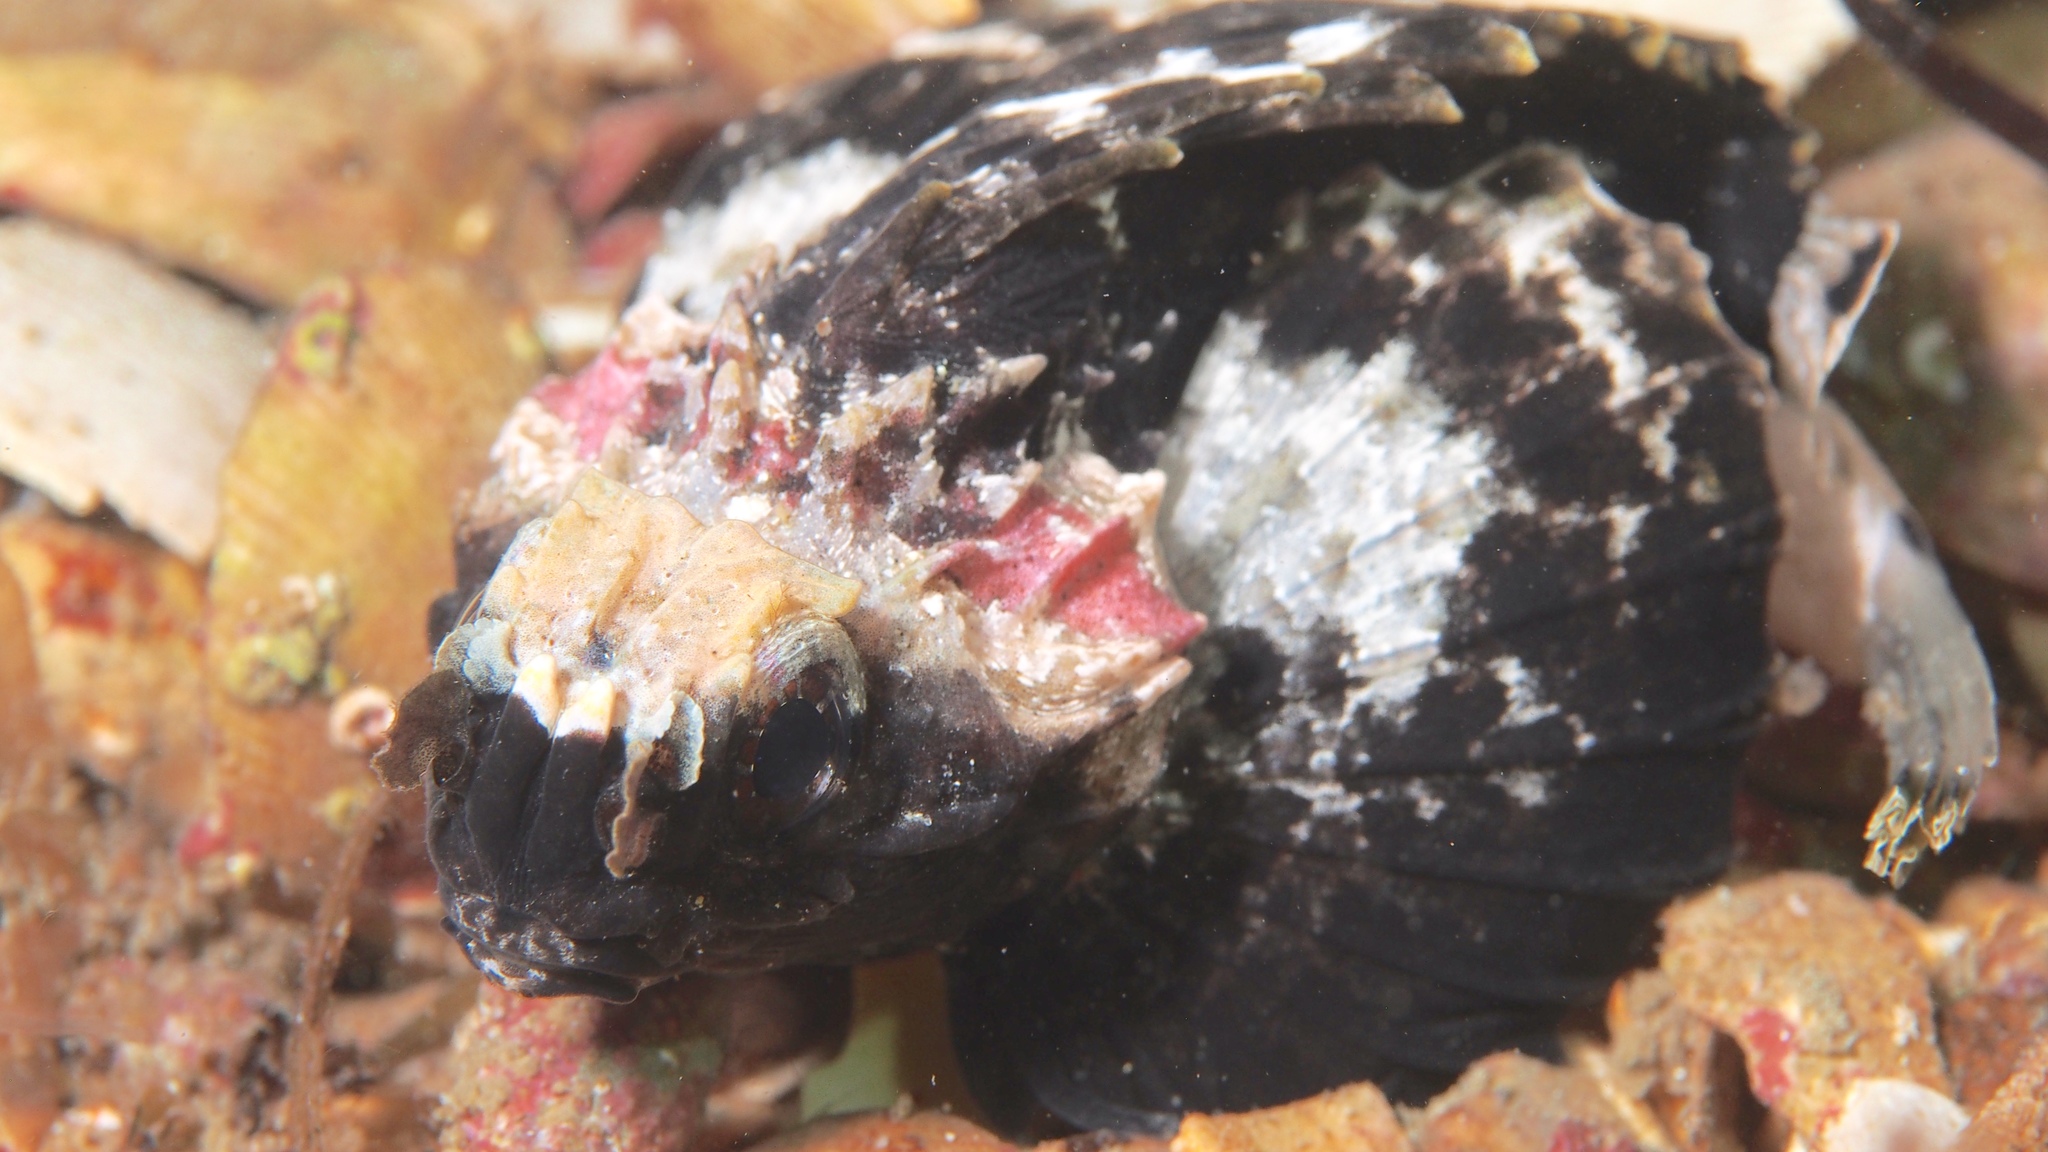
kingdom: Animalia
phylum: Chordata
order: Scorpaeniformes
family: Tetrarogidae
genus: Glyptauchen
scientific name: Glyptauchen panduratus
